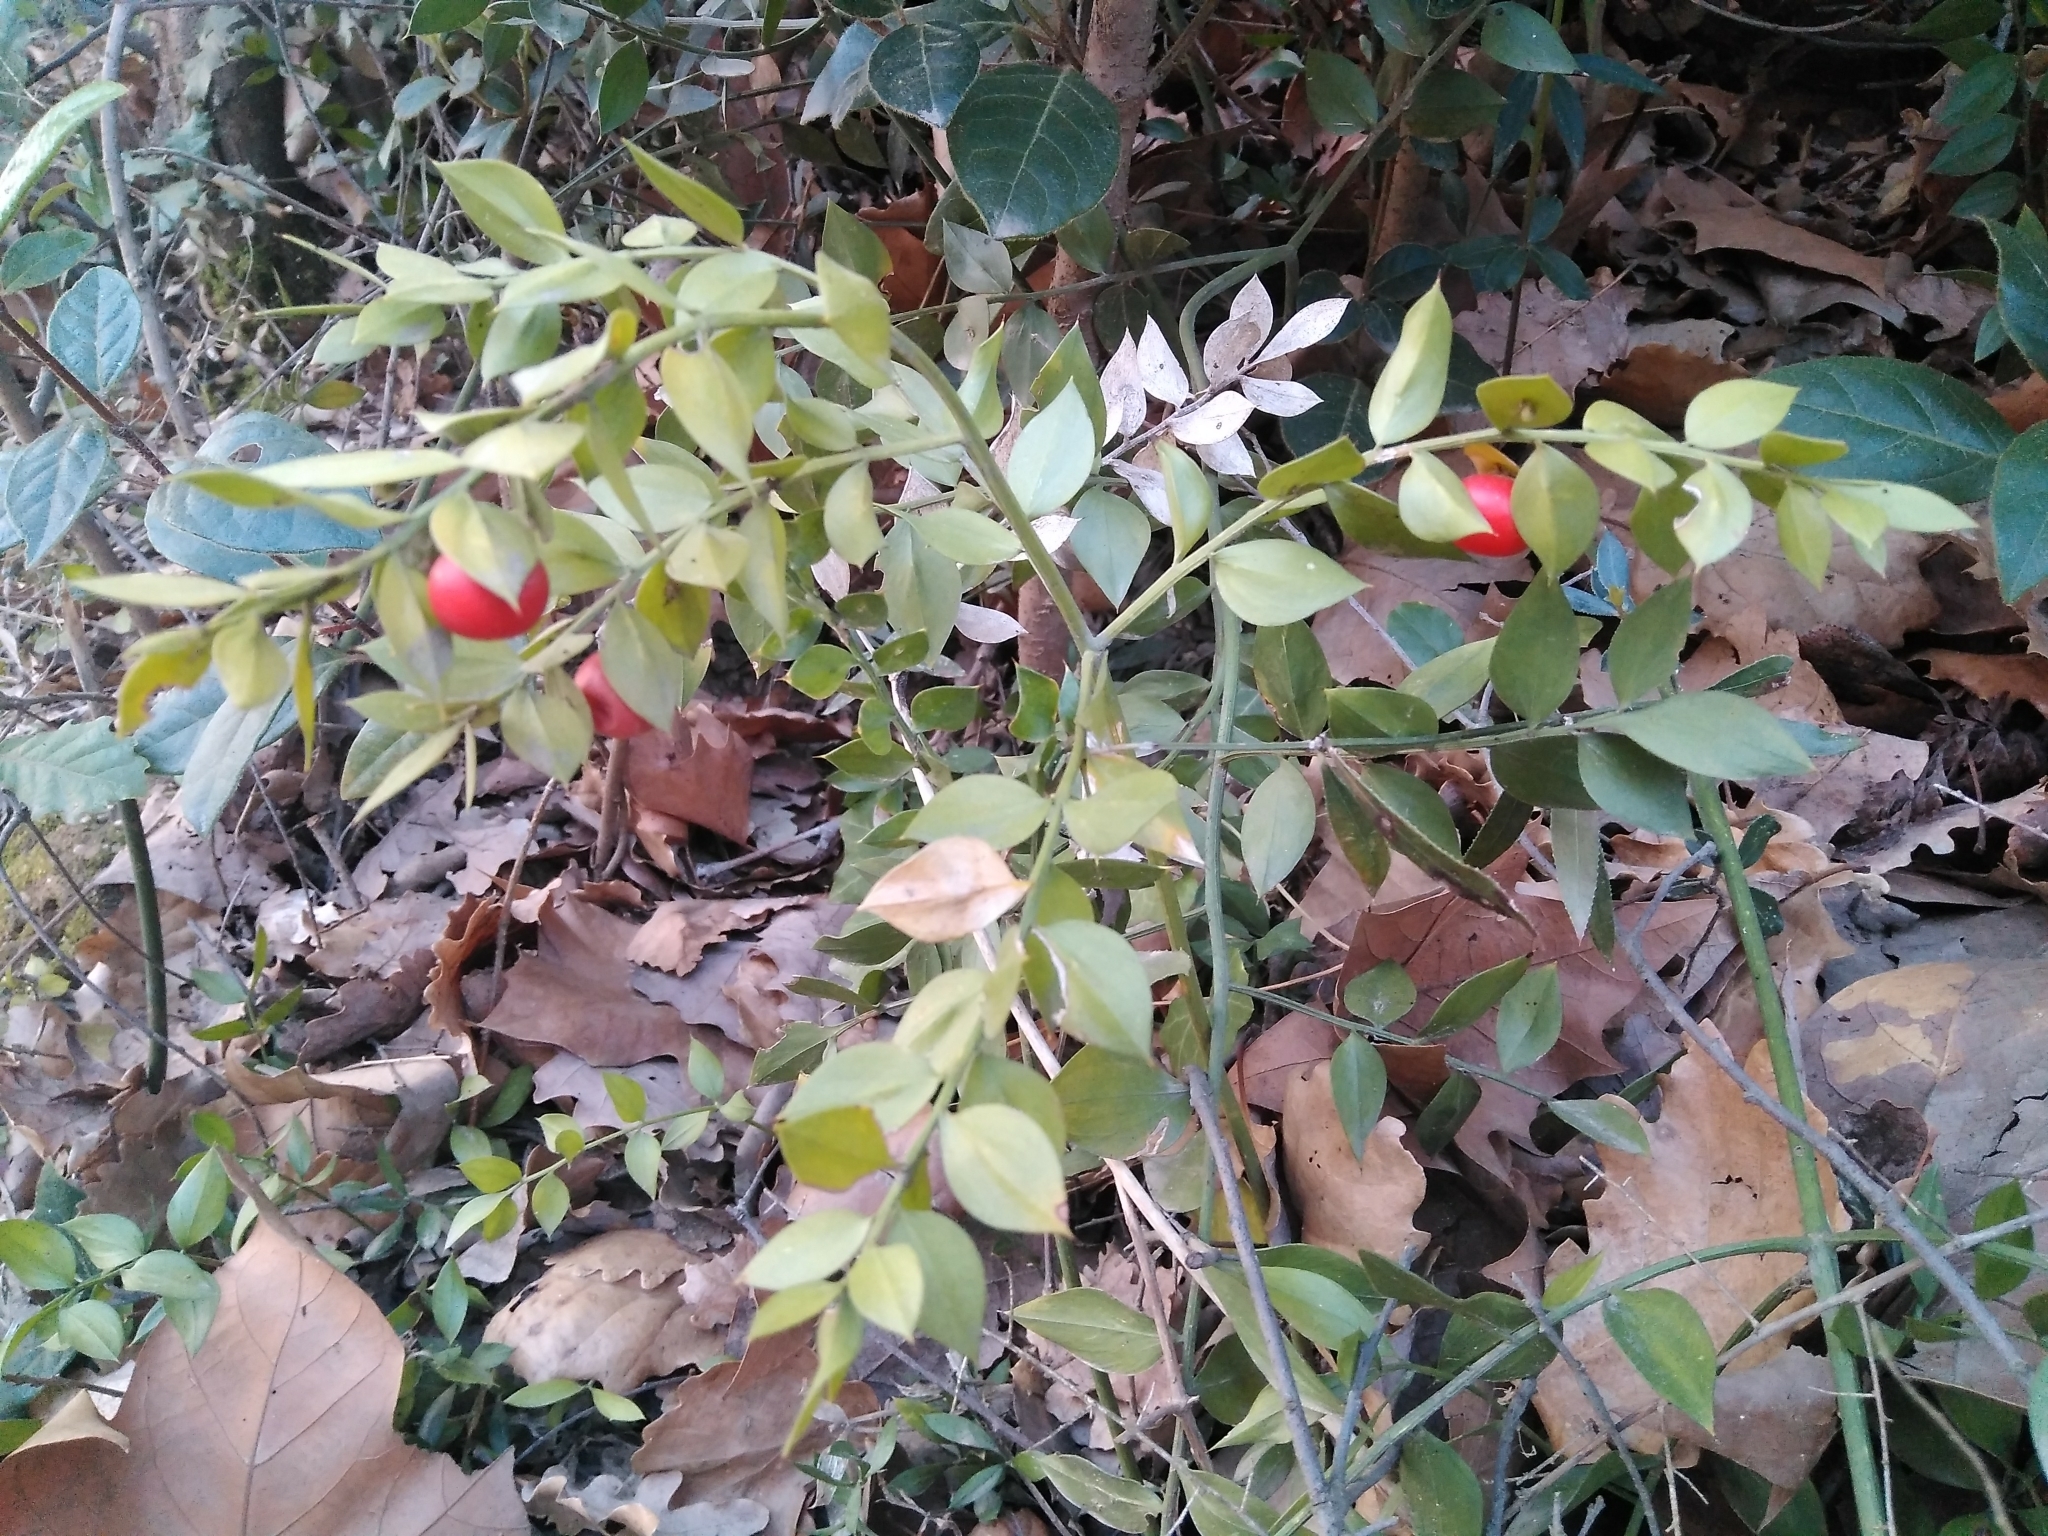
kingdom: Plantae
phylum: Tracheophyta
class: Liliopsida
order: Asparagales
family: Asparagaceae
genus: Ruscus
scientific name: Ruscus aculeatus
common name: Butcher's-broom
